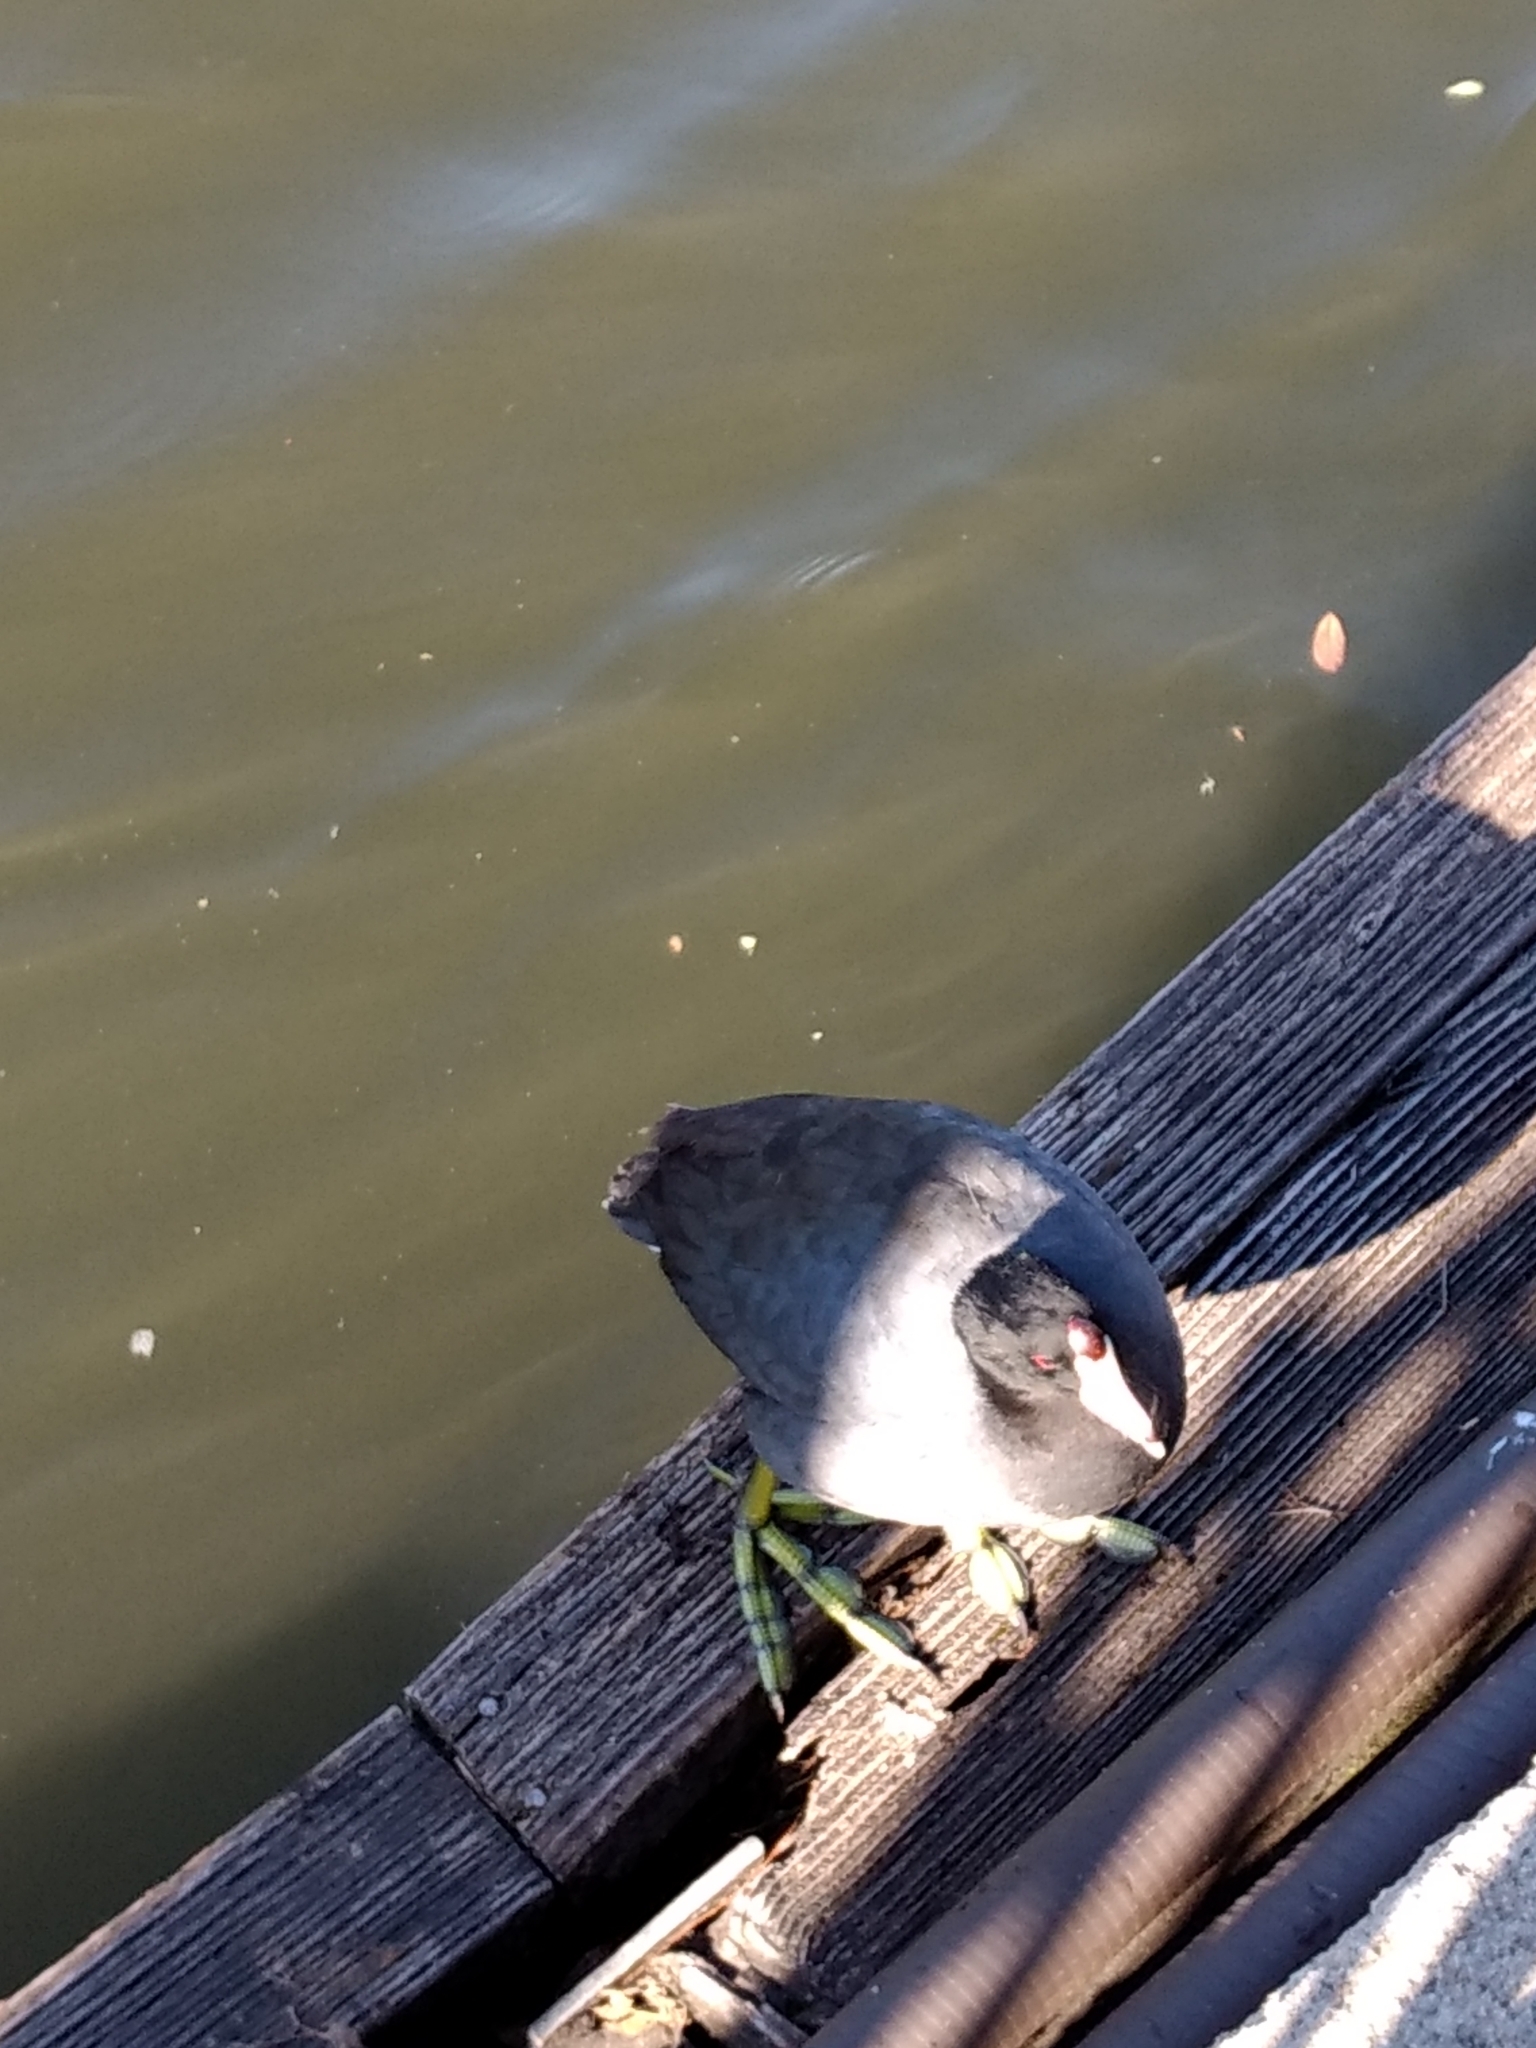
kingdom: Animalia
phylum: Chordata
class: Aves
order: Gruiformes
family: Rallidae
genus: Fulica
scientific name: Fulica americana
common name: American coot
